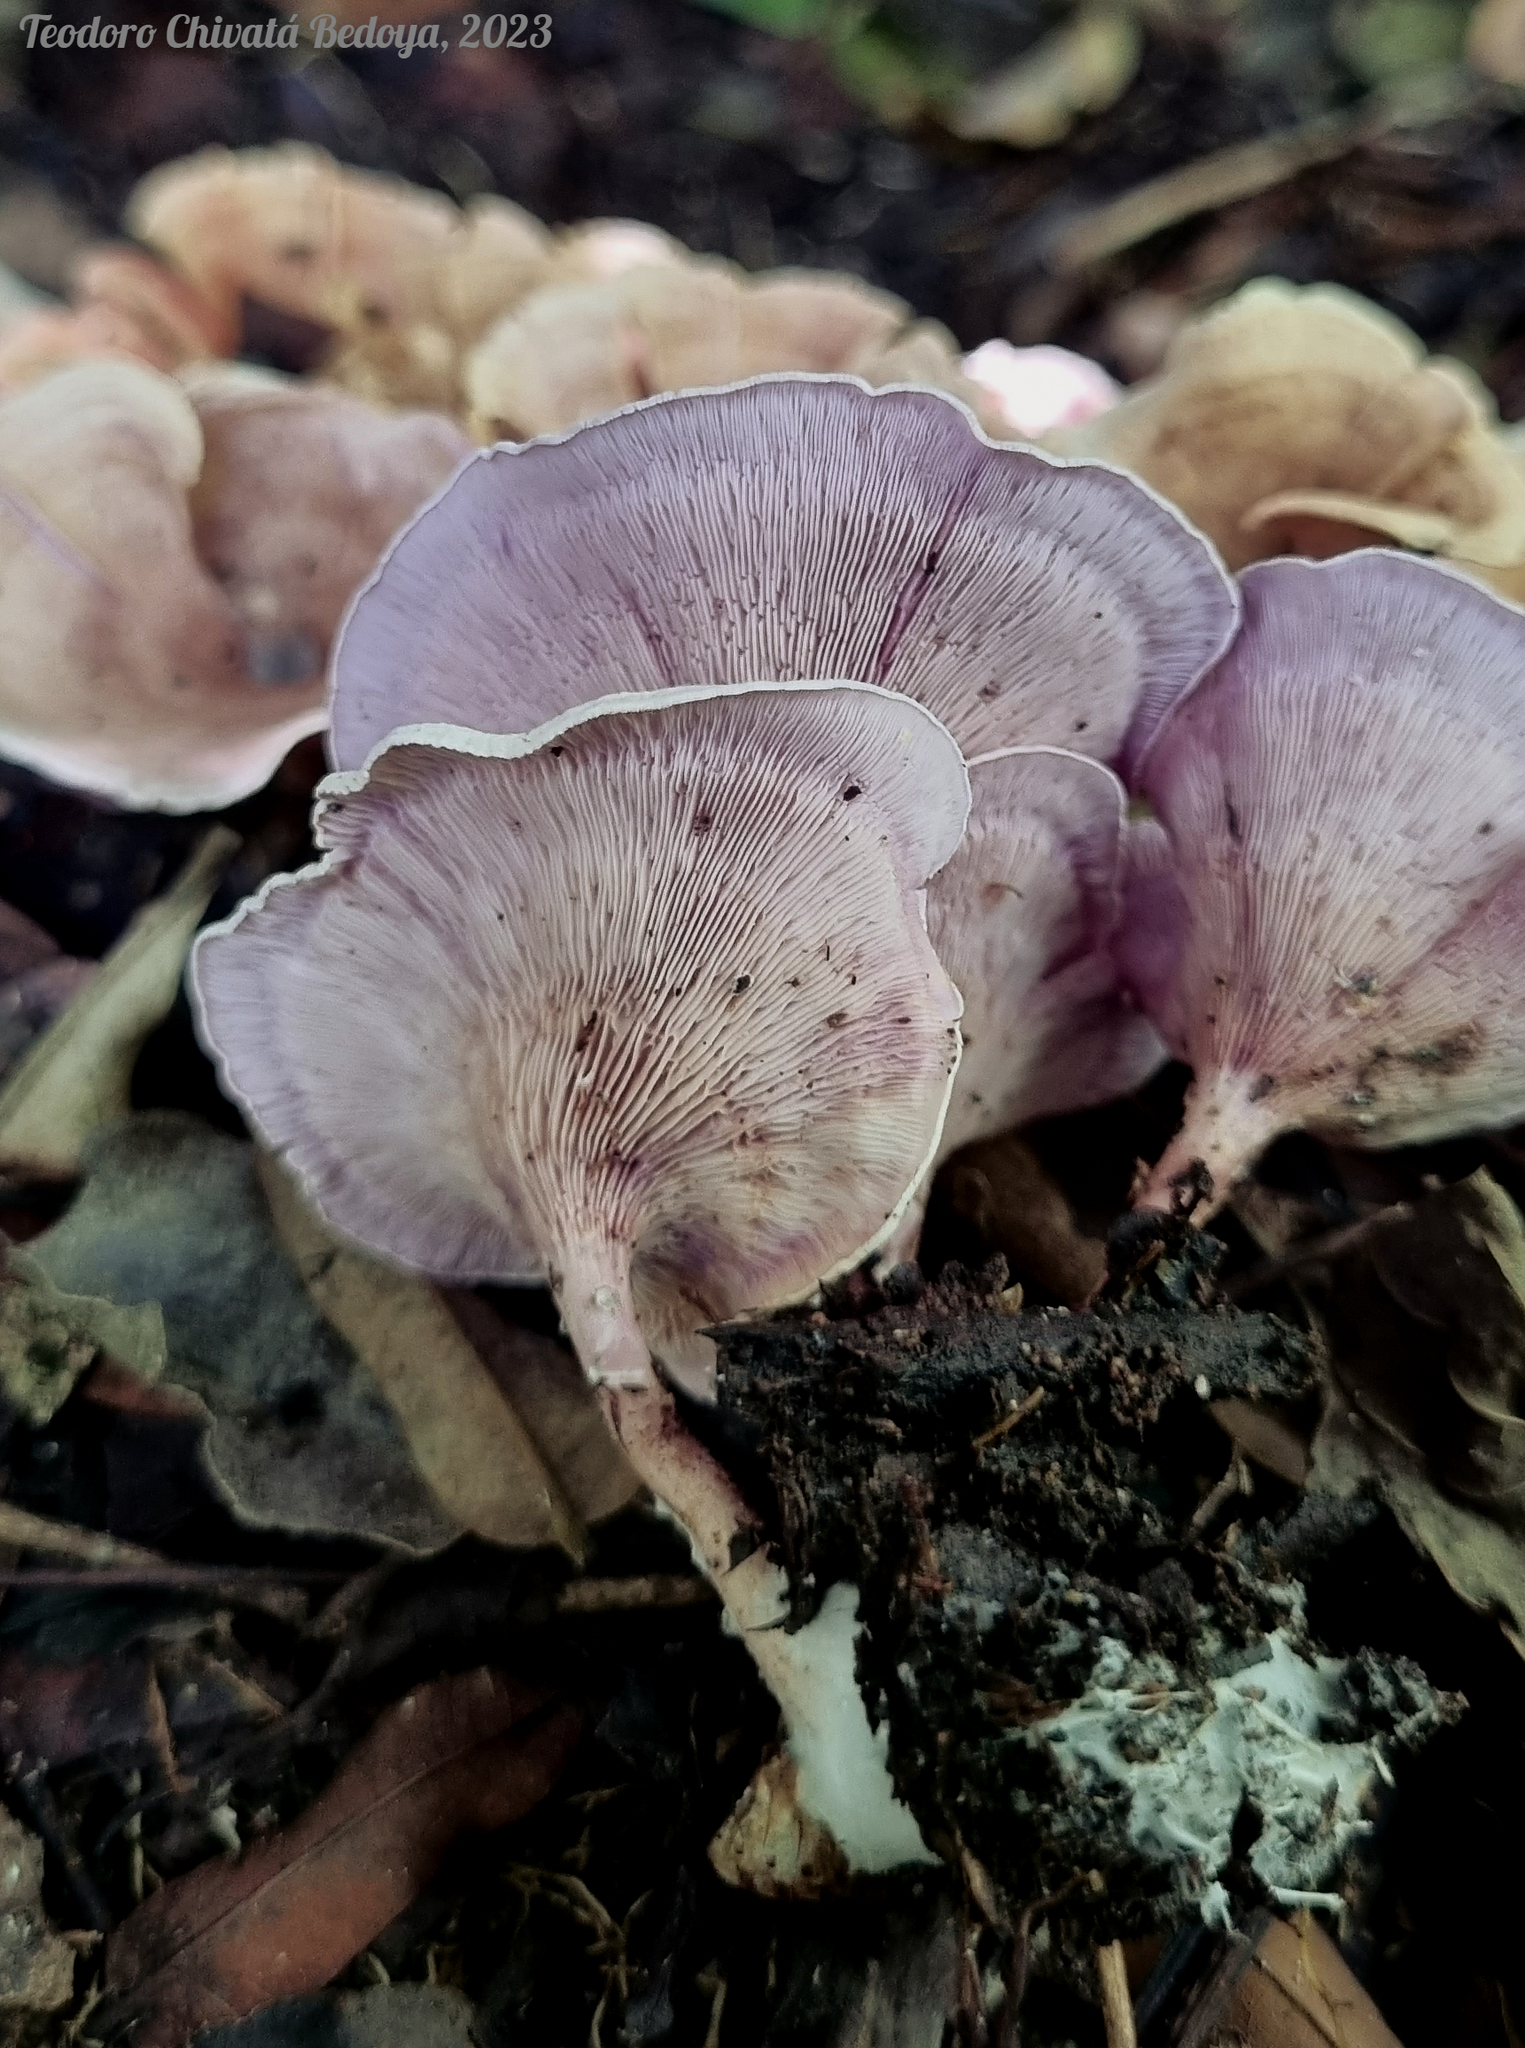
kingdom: Fungi
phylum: Basidiomycota
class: Agaricomycetes
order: Agaricales
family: Marasmiaceae
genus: Trogia
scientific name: Trogia cantharelloides
